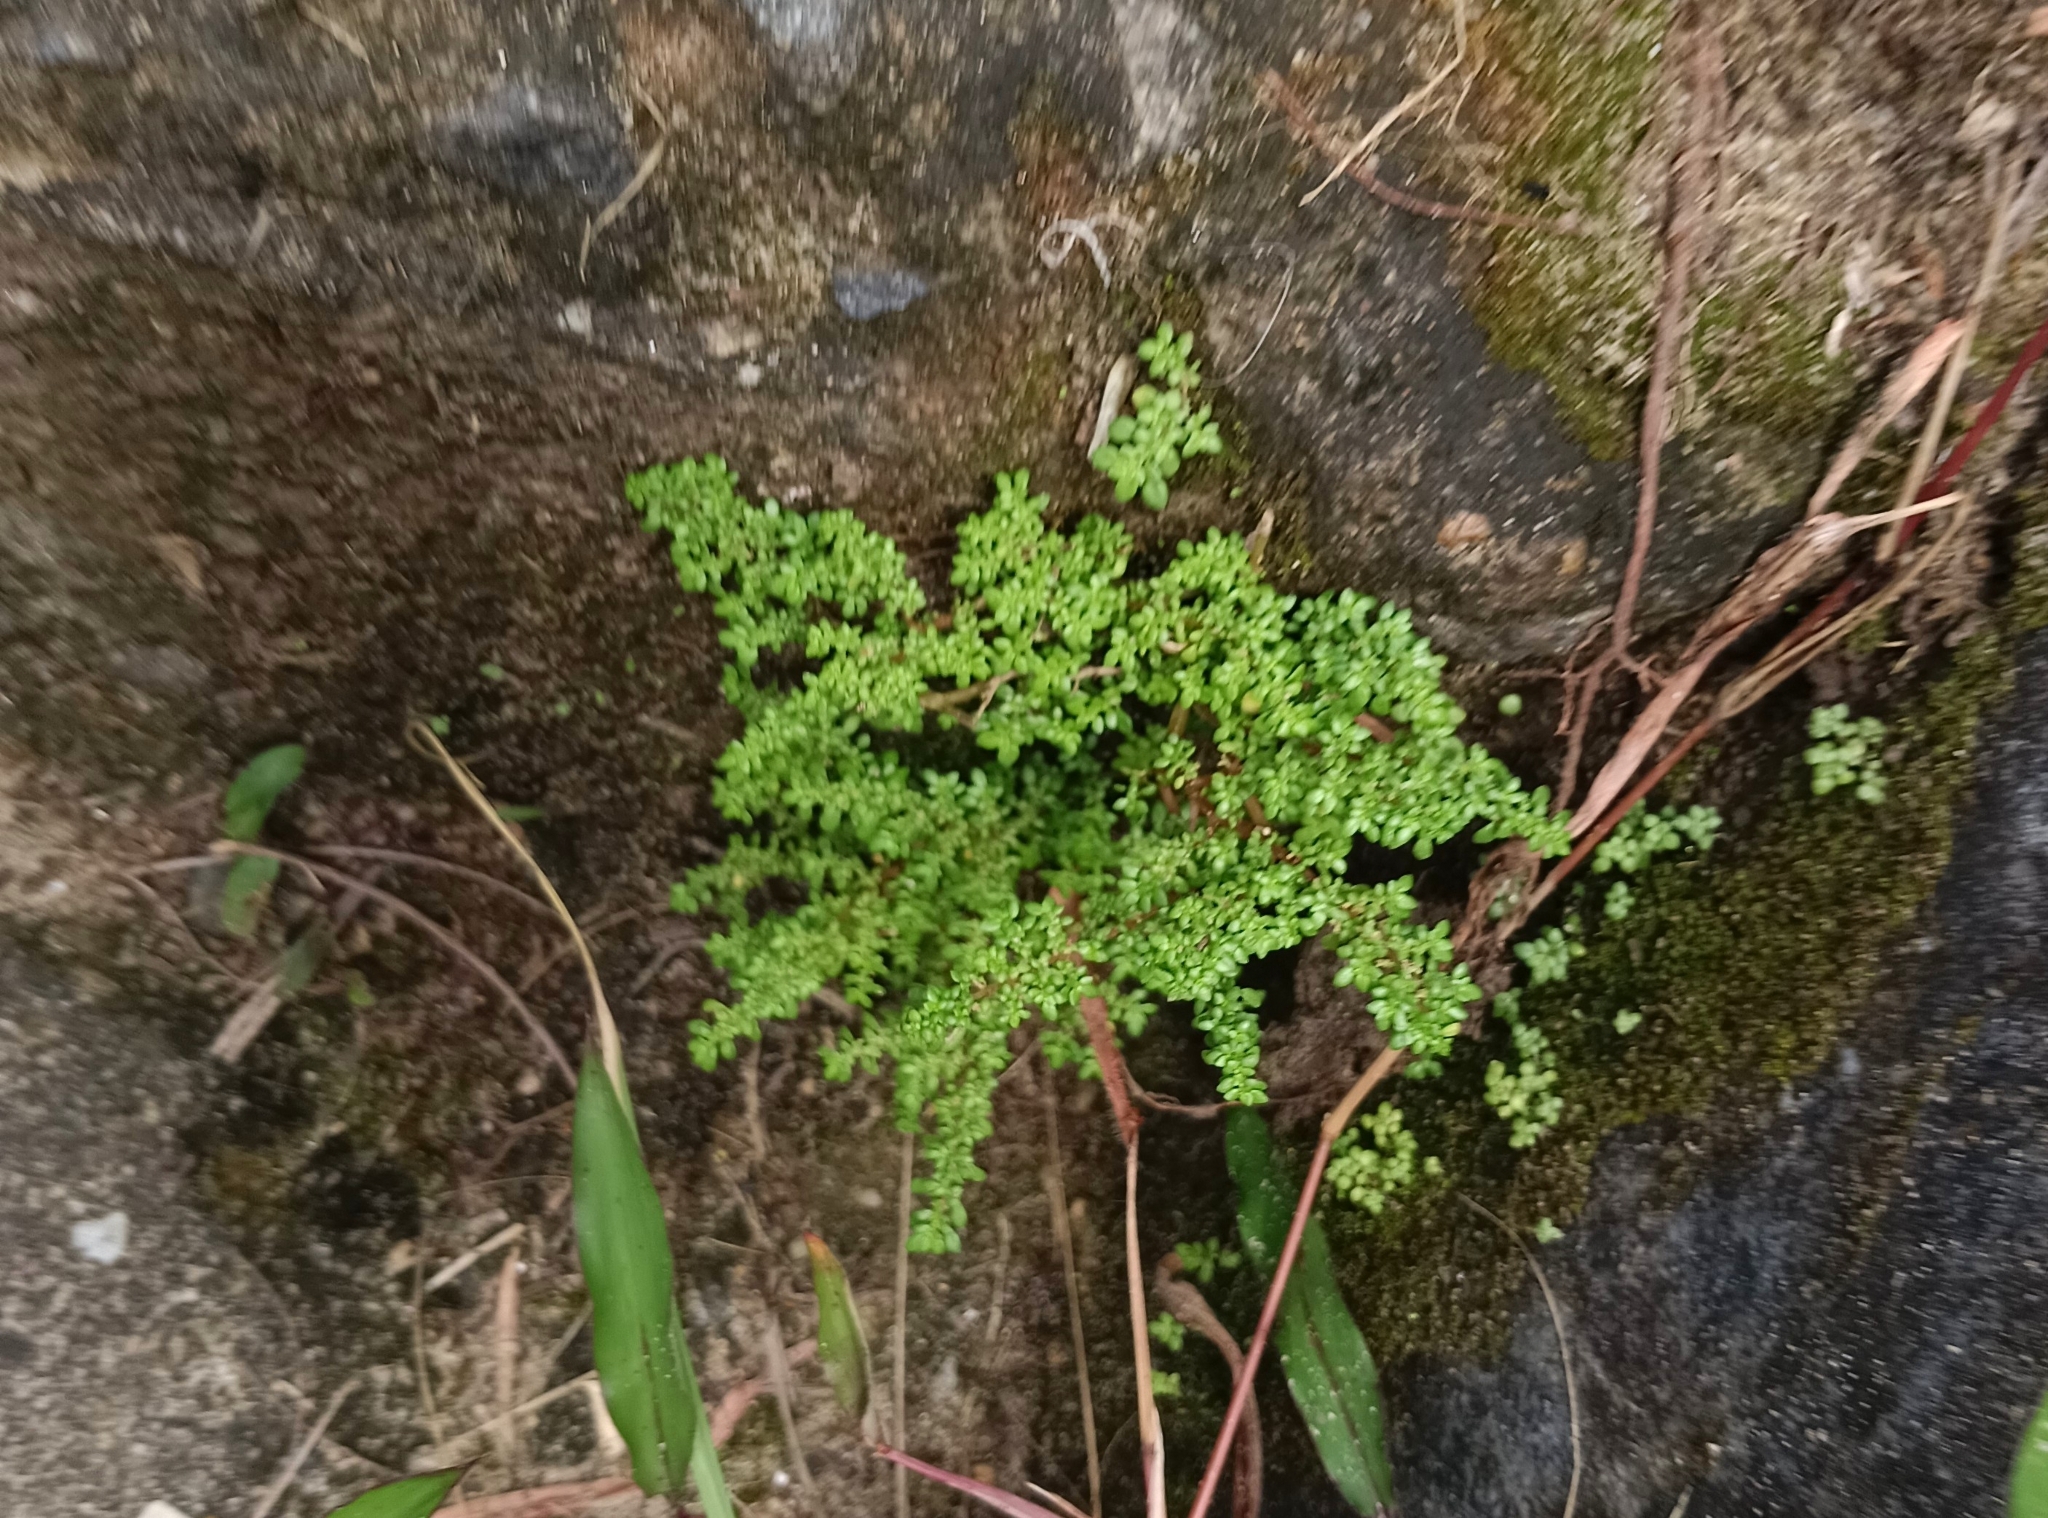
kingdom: Plantae
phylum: Tracheophyta
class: Magnoliopsida
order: Rosales
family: Urticaceae
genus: Pilea
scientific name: Pilea microphylla
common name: Artillery-plant
